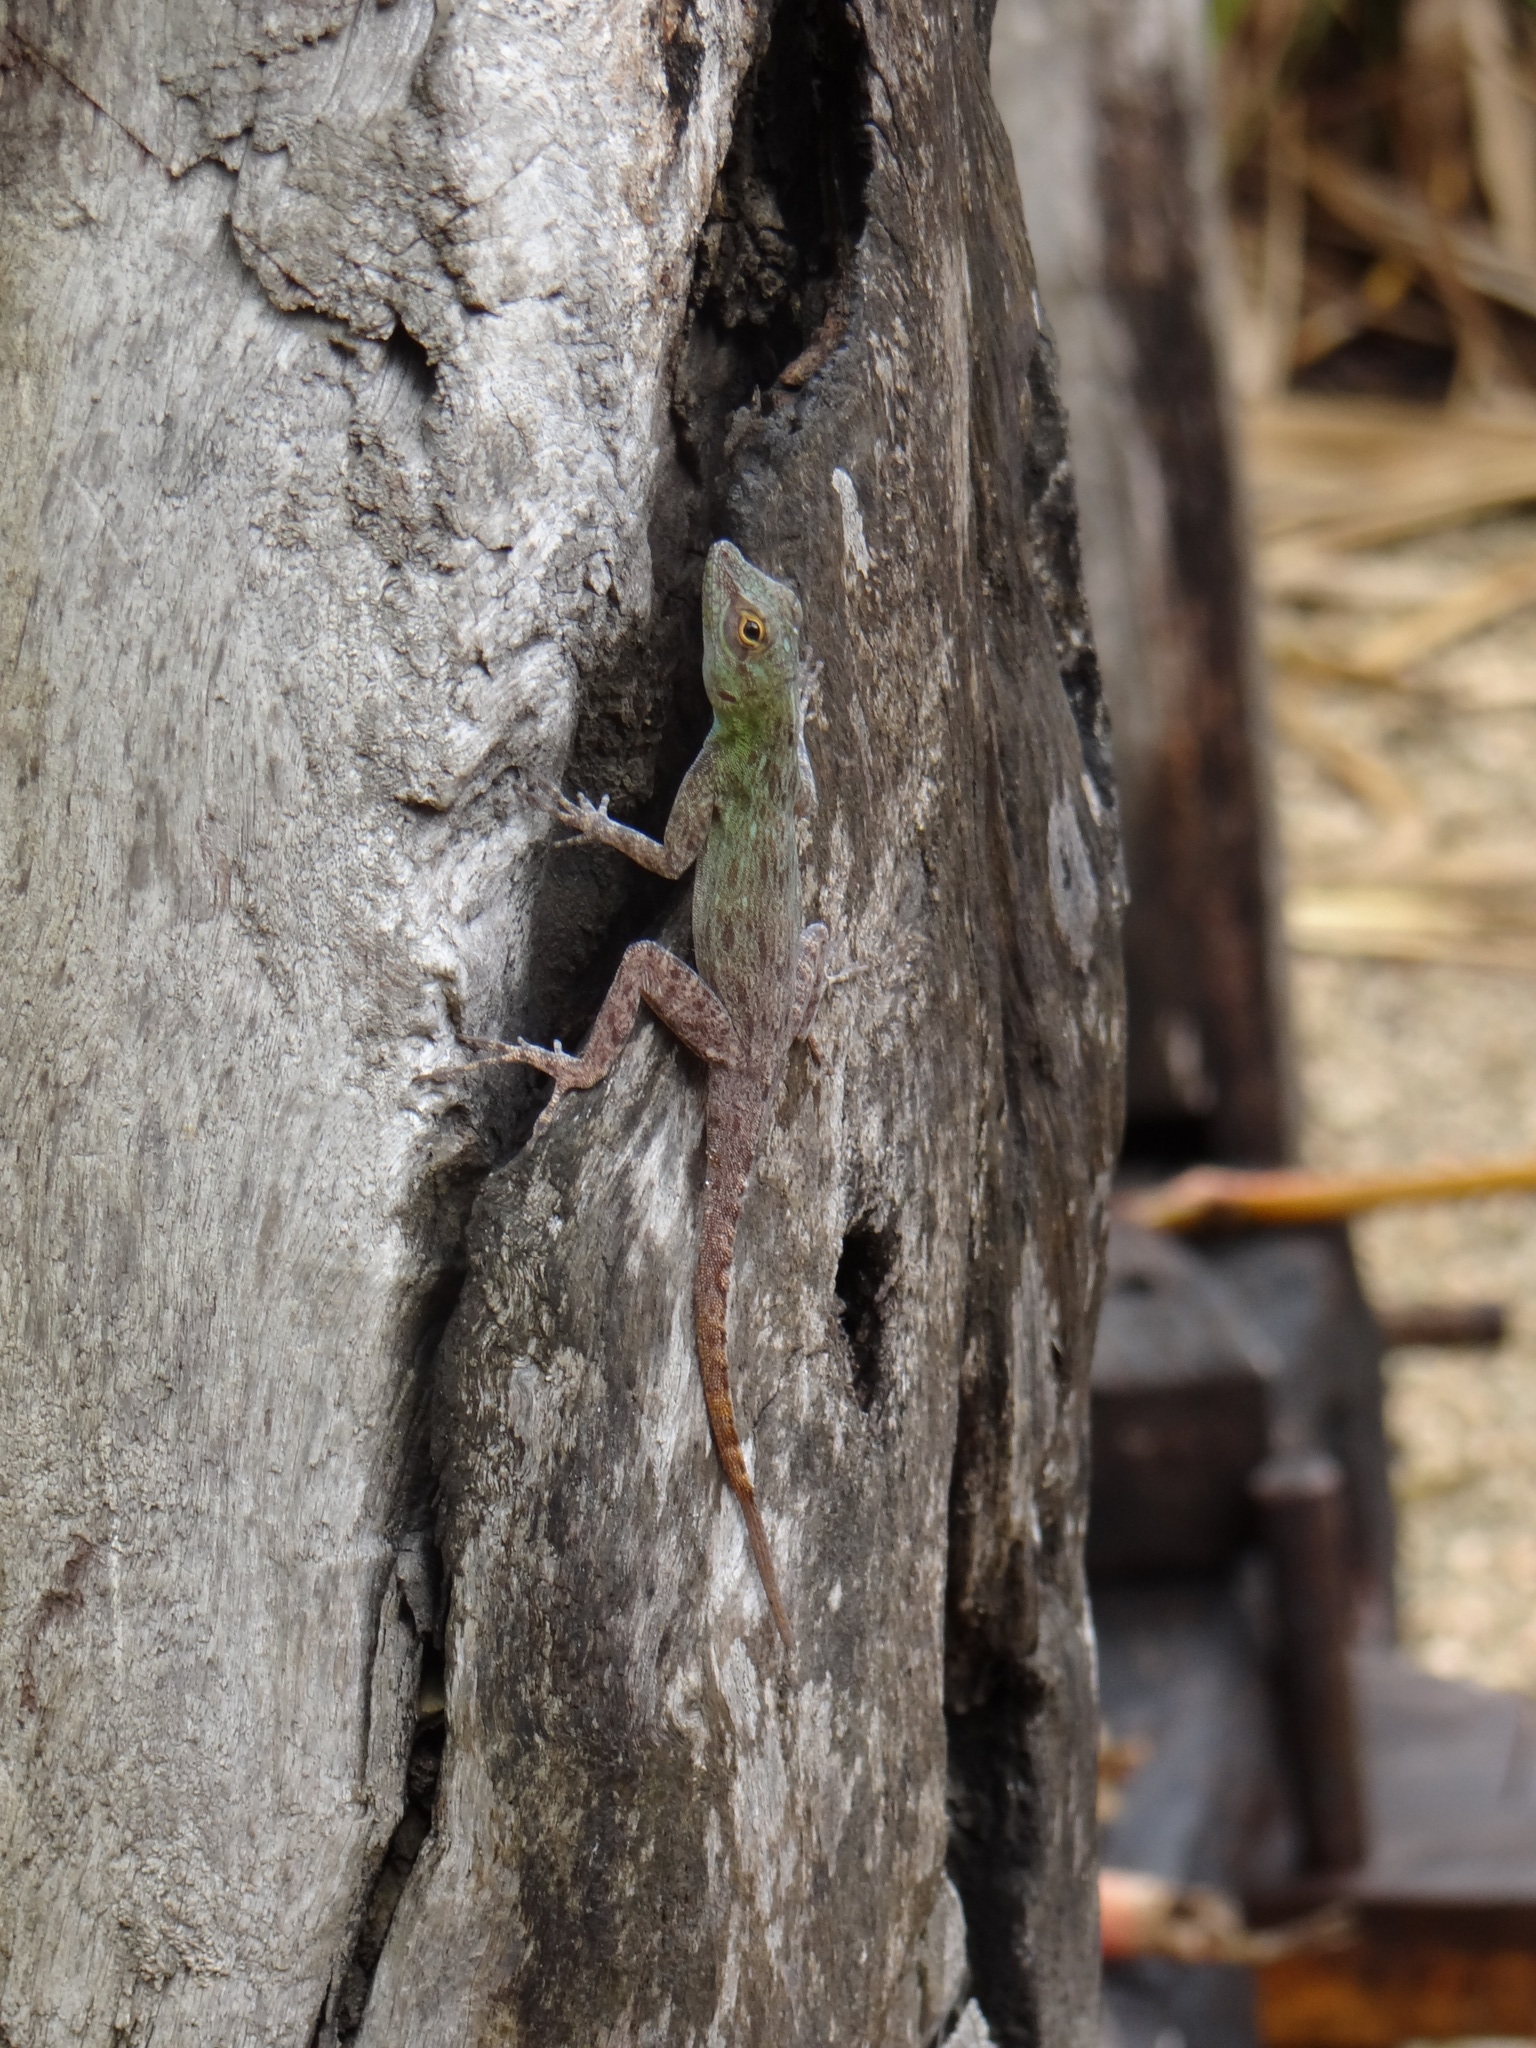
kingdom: Animalia
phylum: Chordata
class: Squamata
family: Dactyloidae
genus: Anolis
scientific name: Anolis distichus
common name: Bark anole
